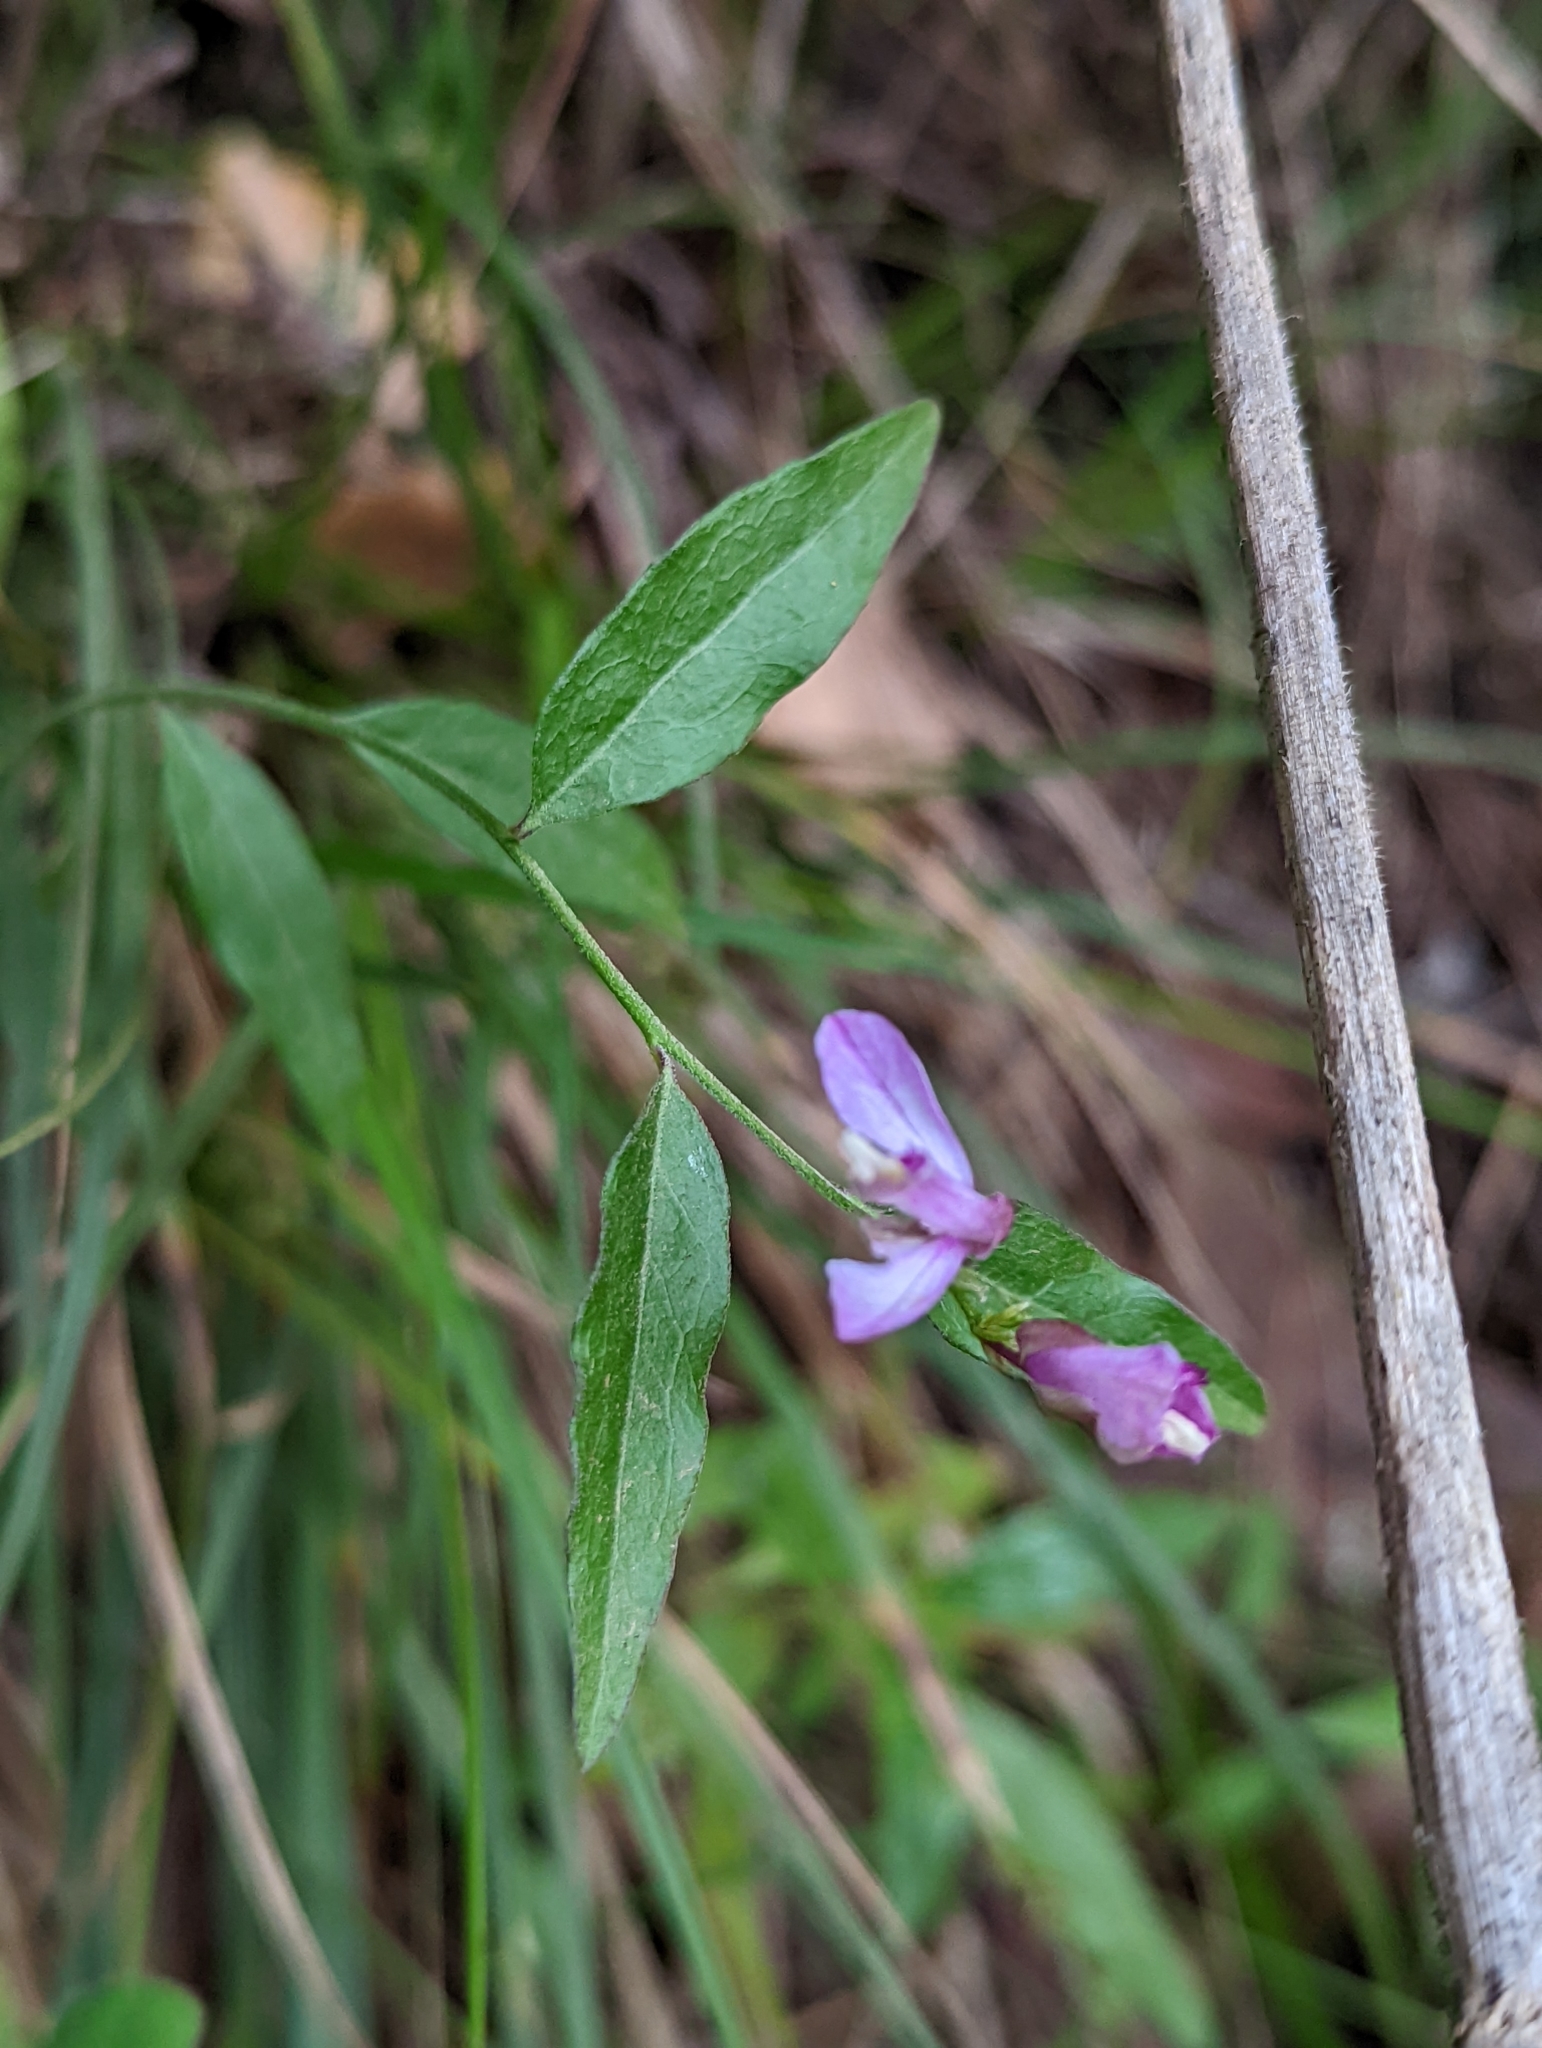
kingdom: Plantae
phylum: Tracheophyta
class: Magnoliopsida
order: Fabales
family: Polygalaceae
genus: Rhinotropis
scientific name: Rhinotropis californica
